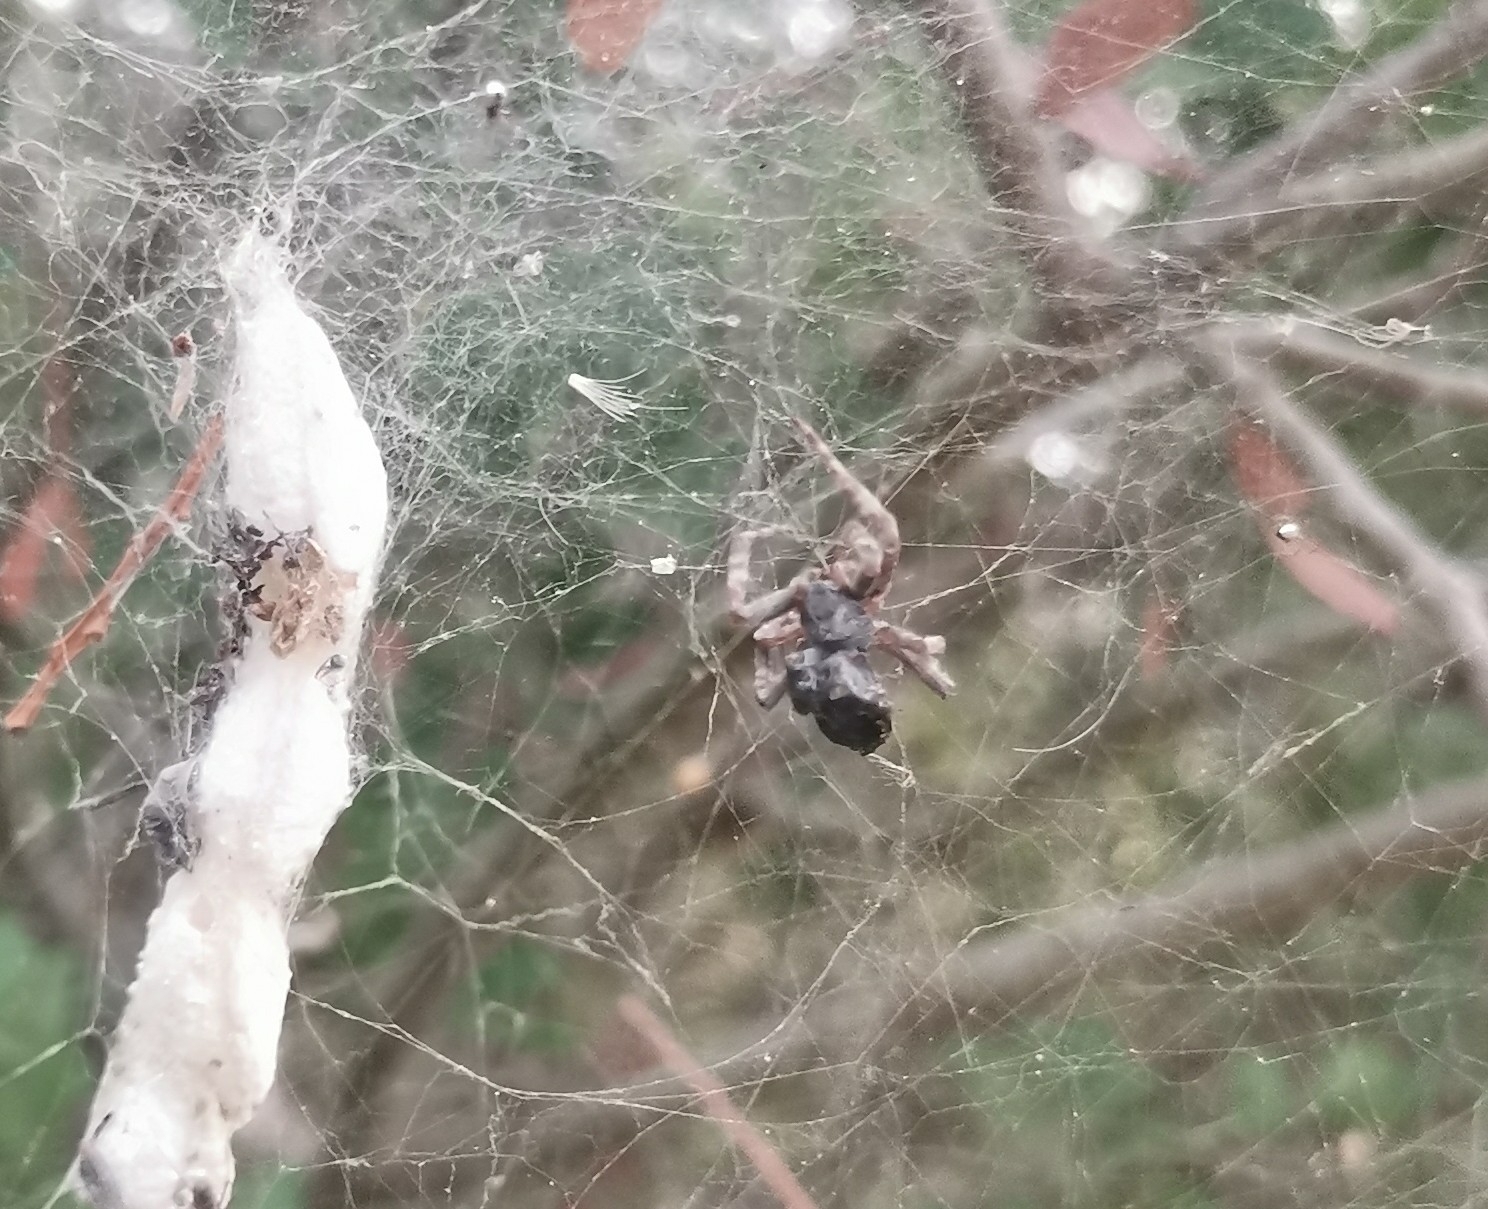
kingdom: Animalia
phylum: Arthropoda
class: Arachnida
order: Araneae
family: Araneidae
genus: Cyrtophora
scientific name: Cyrtophora citricola
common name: Orb weavers
